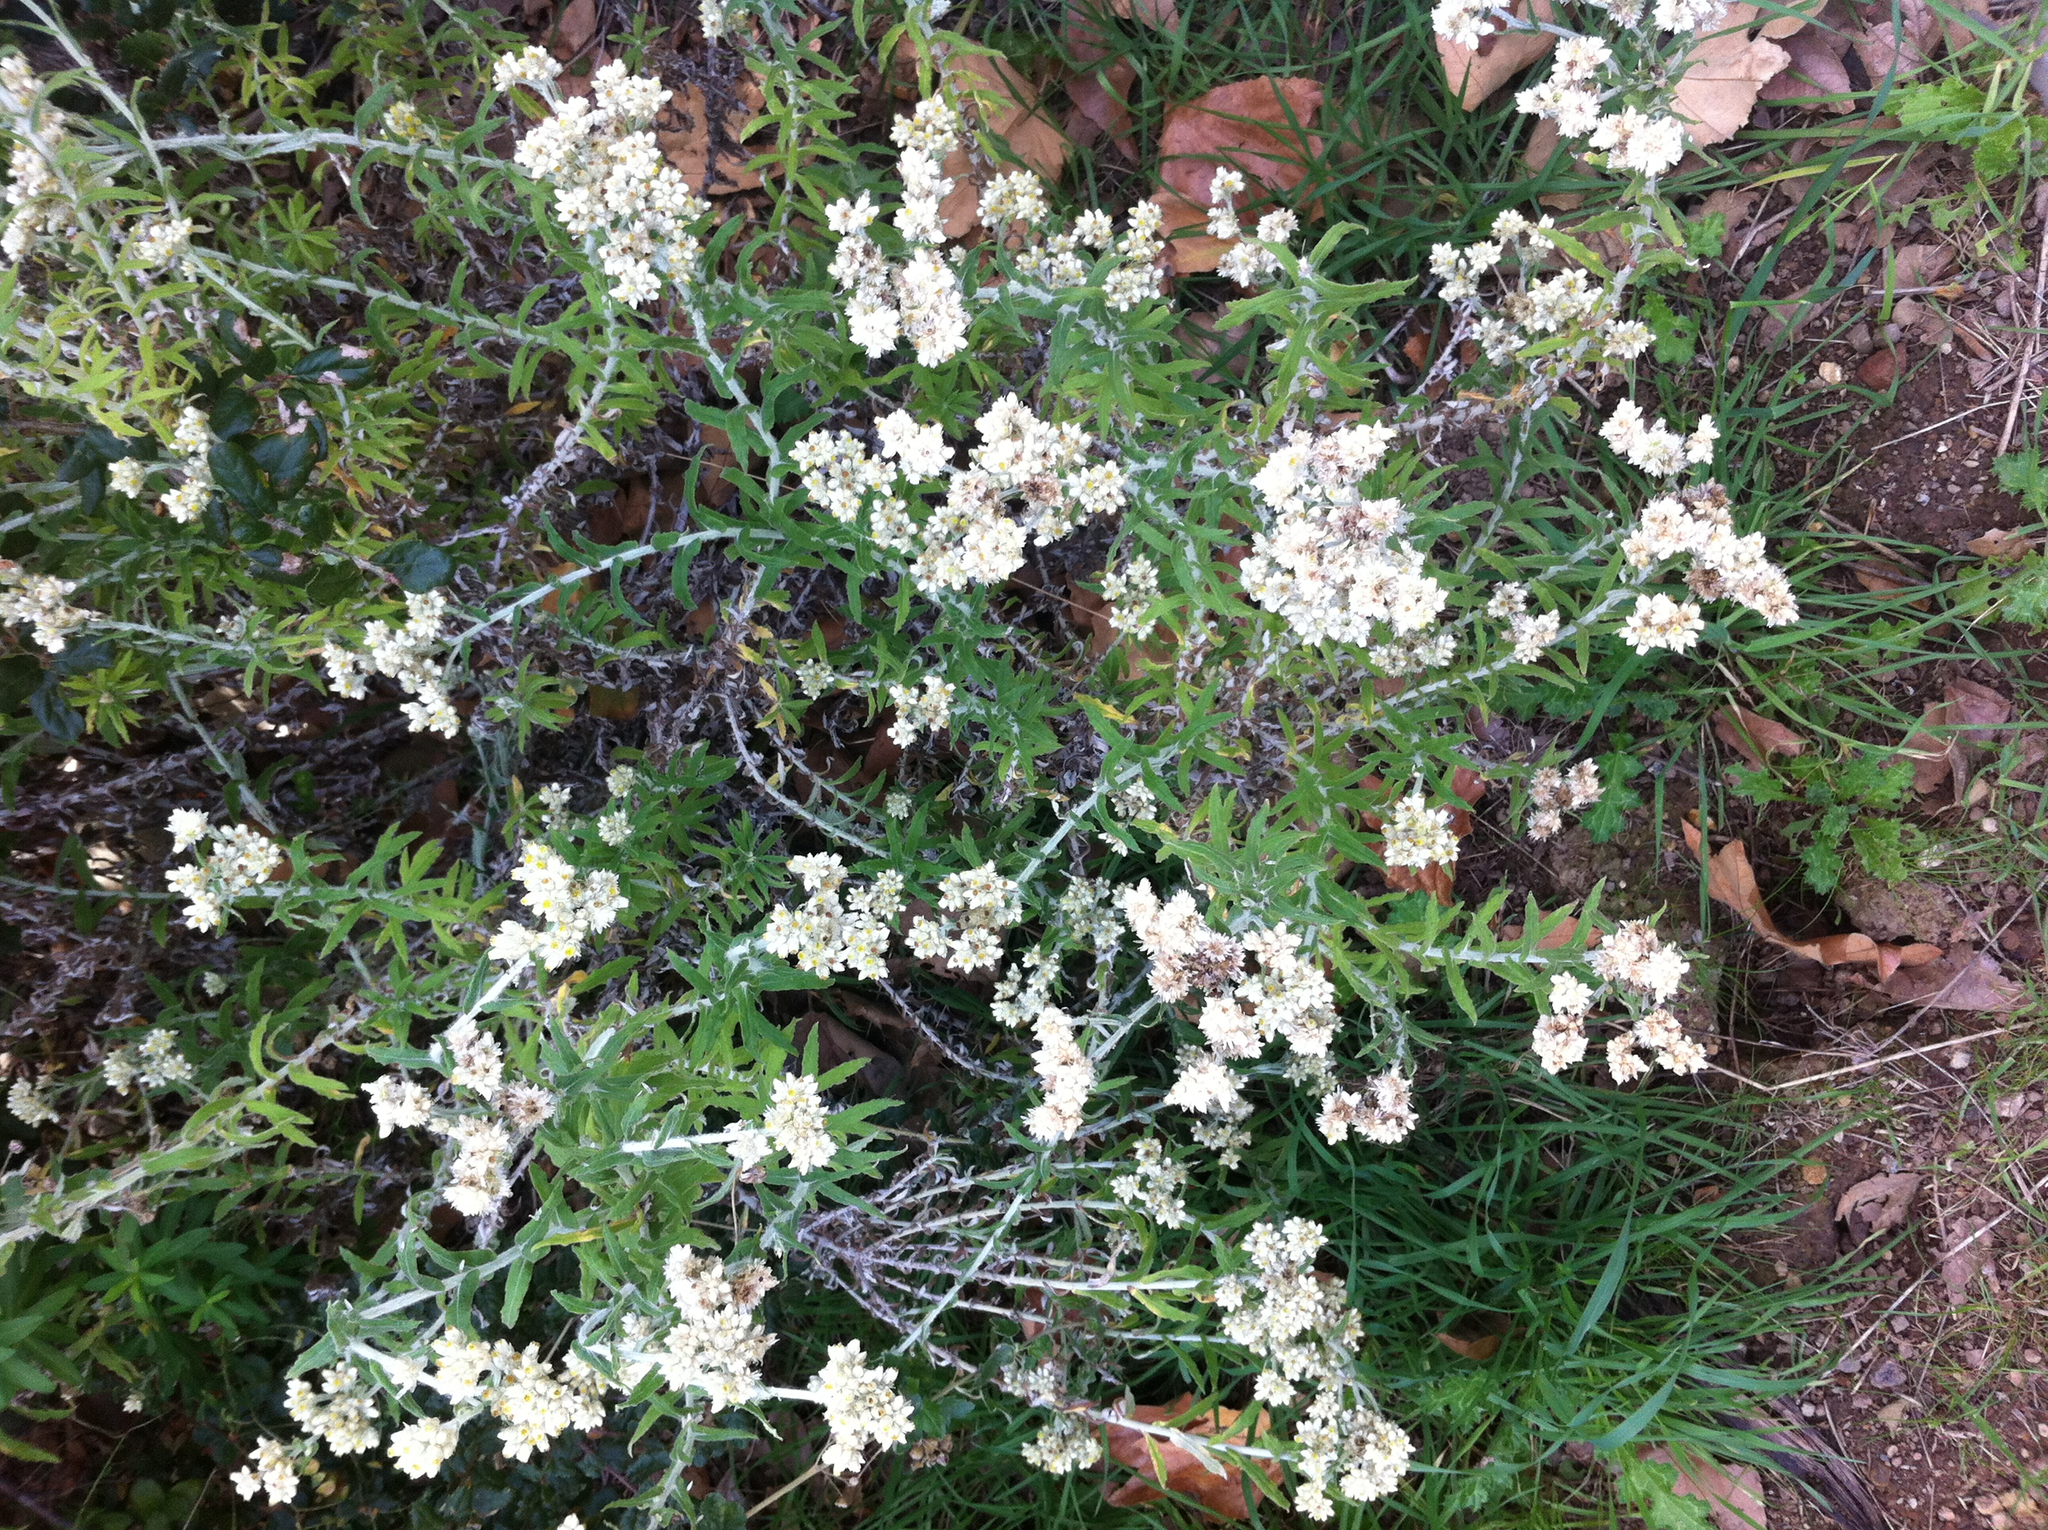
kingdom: Plantae
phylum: Tracheophyta
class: Magnoliopsida
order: Asterales
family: Asteraceae
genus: Pseudognaphalium
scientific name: Pseudognaphalium biolettii
